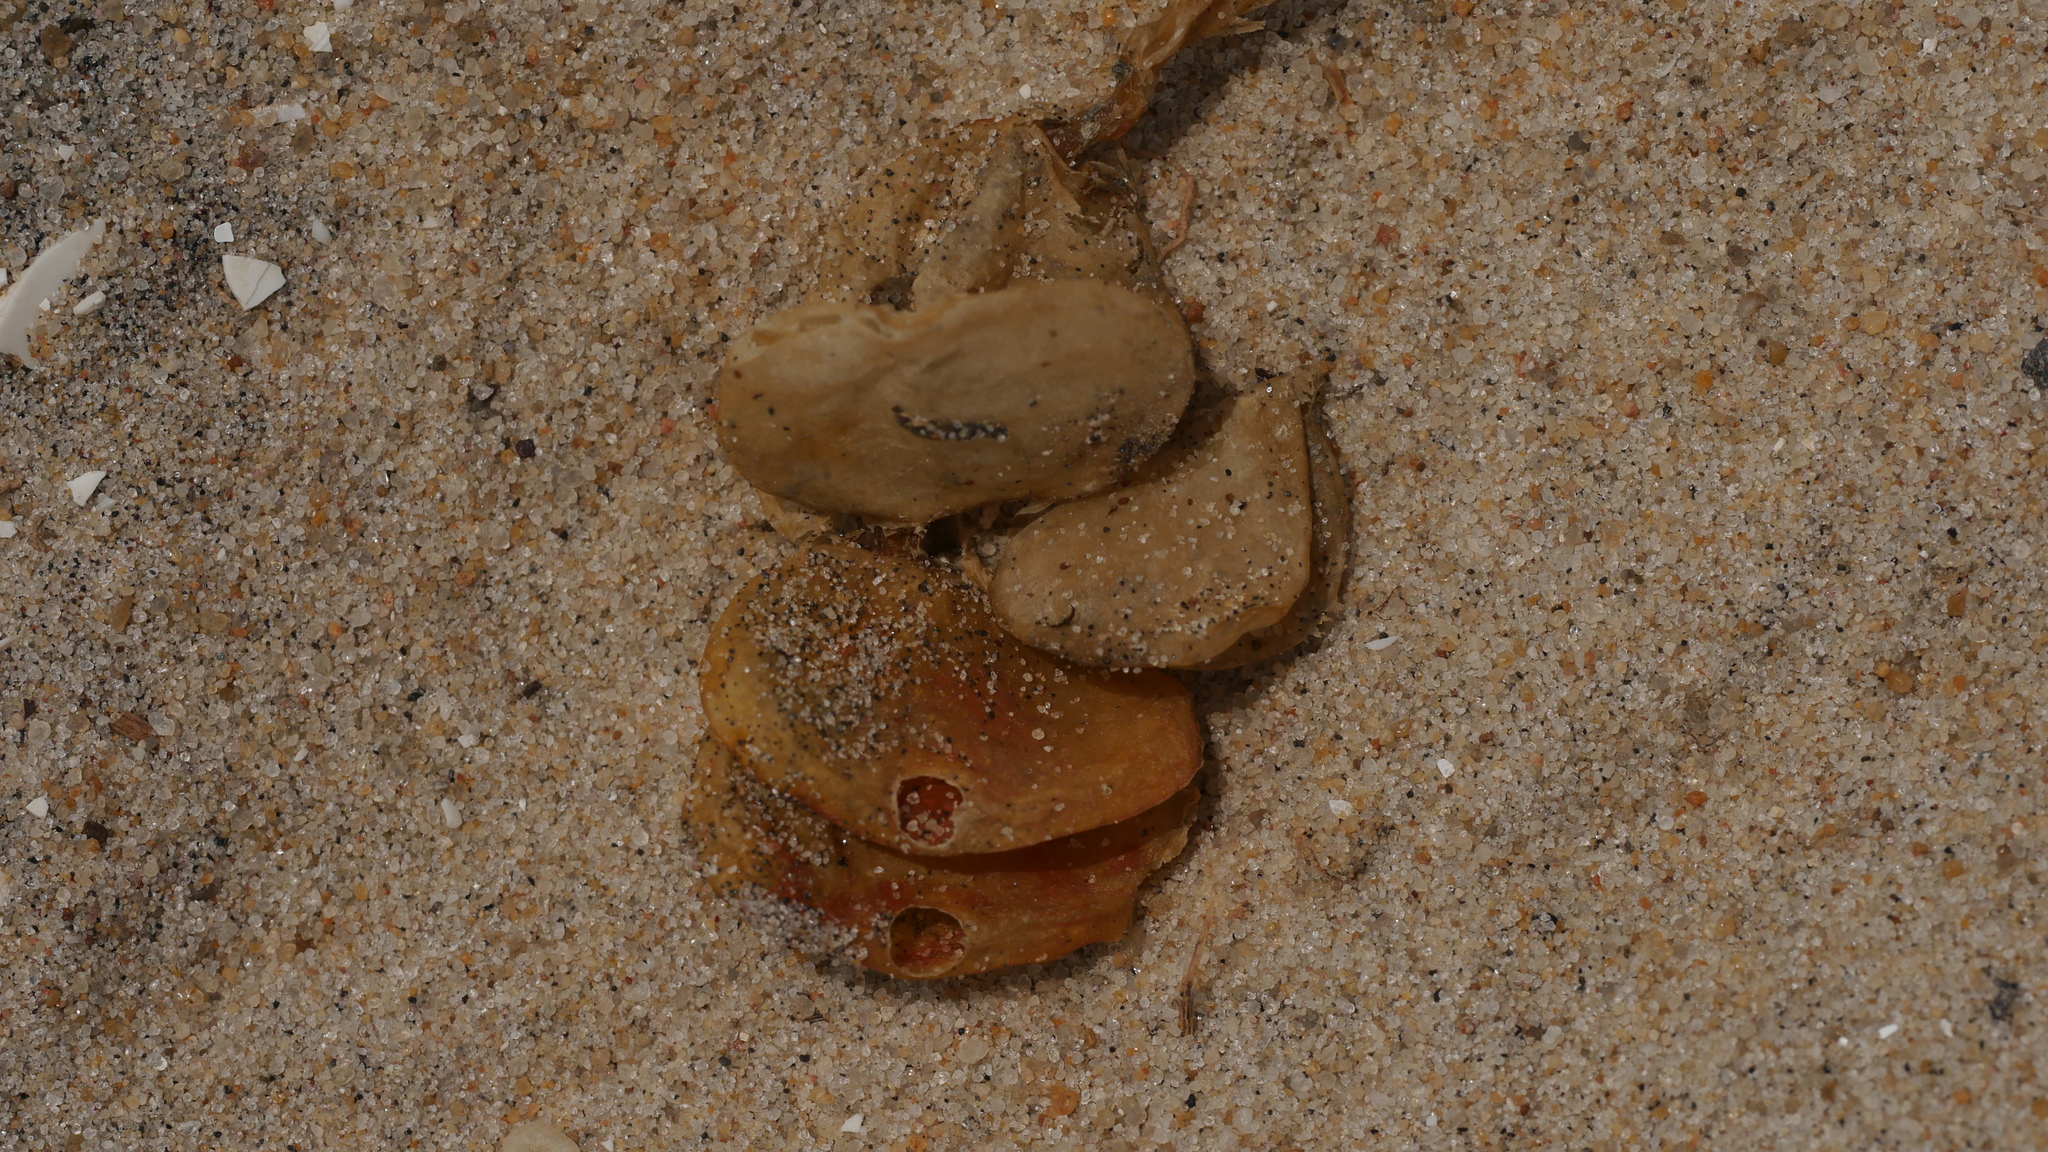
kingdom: Animalia
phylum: Mollusca
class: Gastropoda
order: Neogastropoda
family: Busyconidae
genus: Busycon
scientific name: Busycon carica
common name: Knobbed whelk
